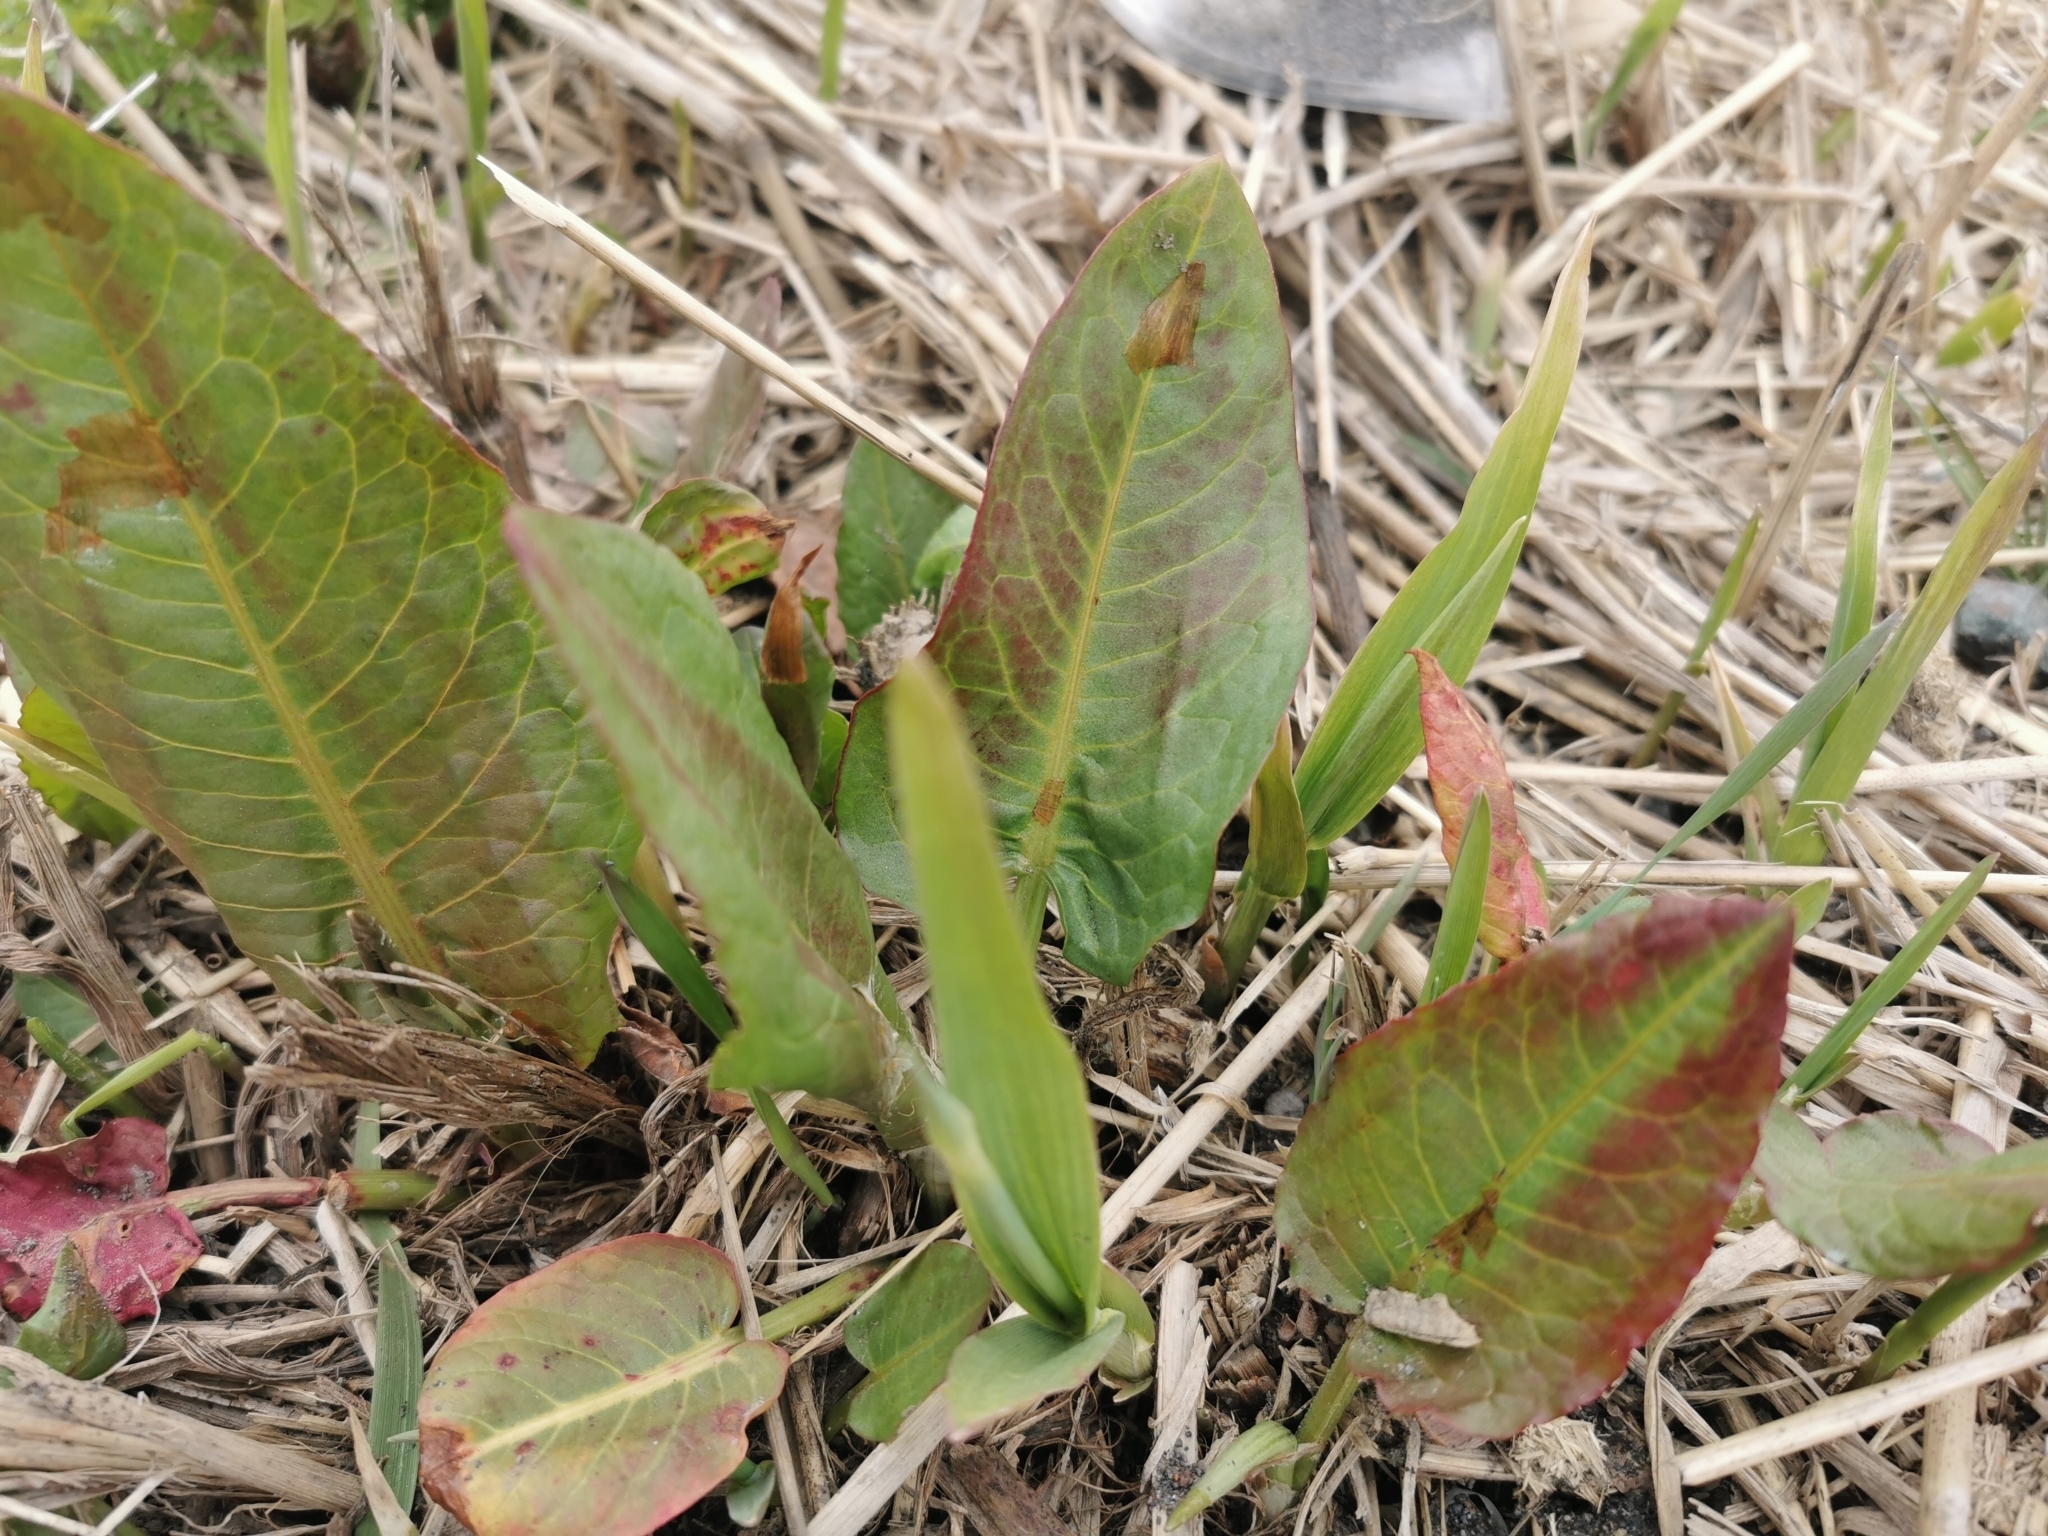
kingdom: Plantae
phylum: Tracheophyta
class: Magnoliopsida
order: Caryophyllales
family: Polygonaceae
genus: Rumex
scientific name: Rumex aquaticus
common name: Scottish dock
